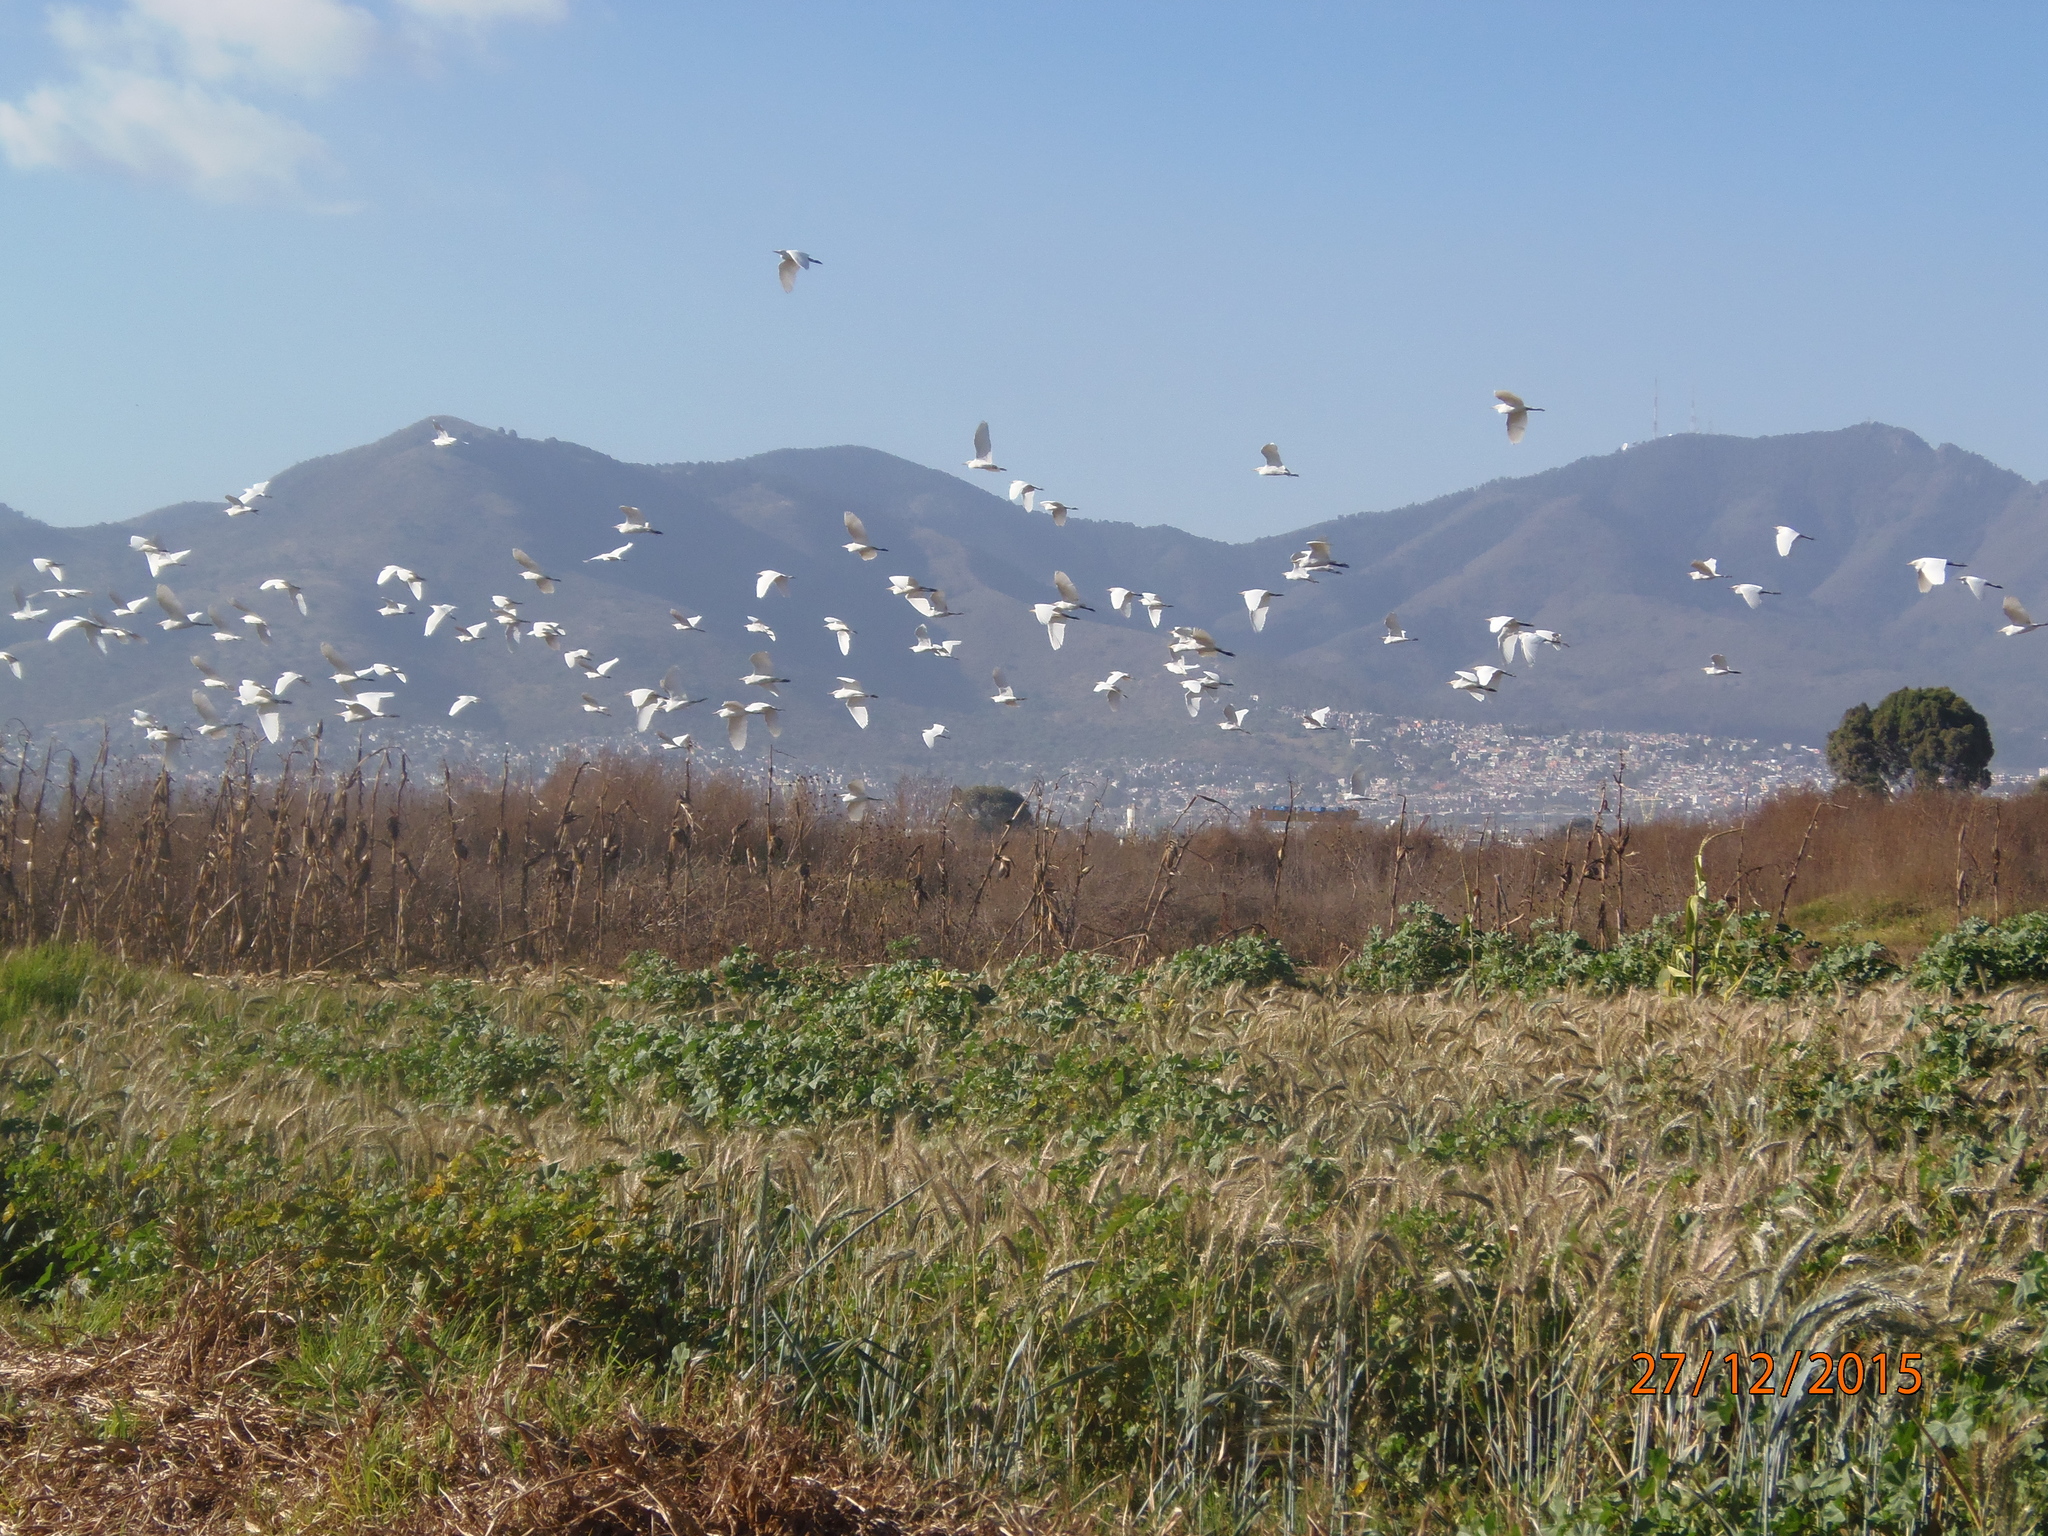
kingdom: Animalia
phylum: Chordata
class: Aves
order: Pelecaniformes
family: Ardeidae
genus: Bubulcus
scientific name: Bubulcus ibis
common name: Cattle egret
